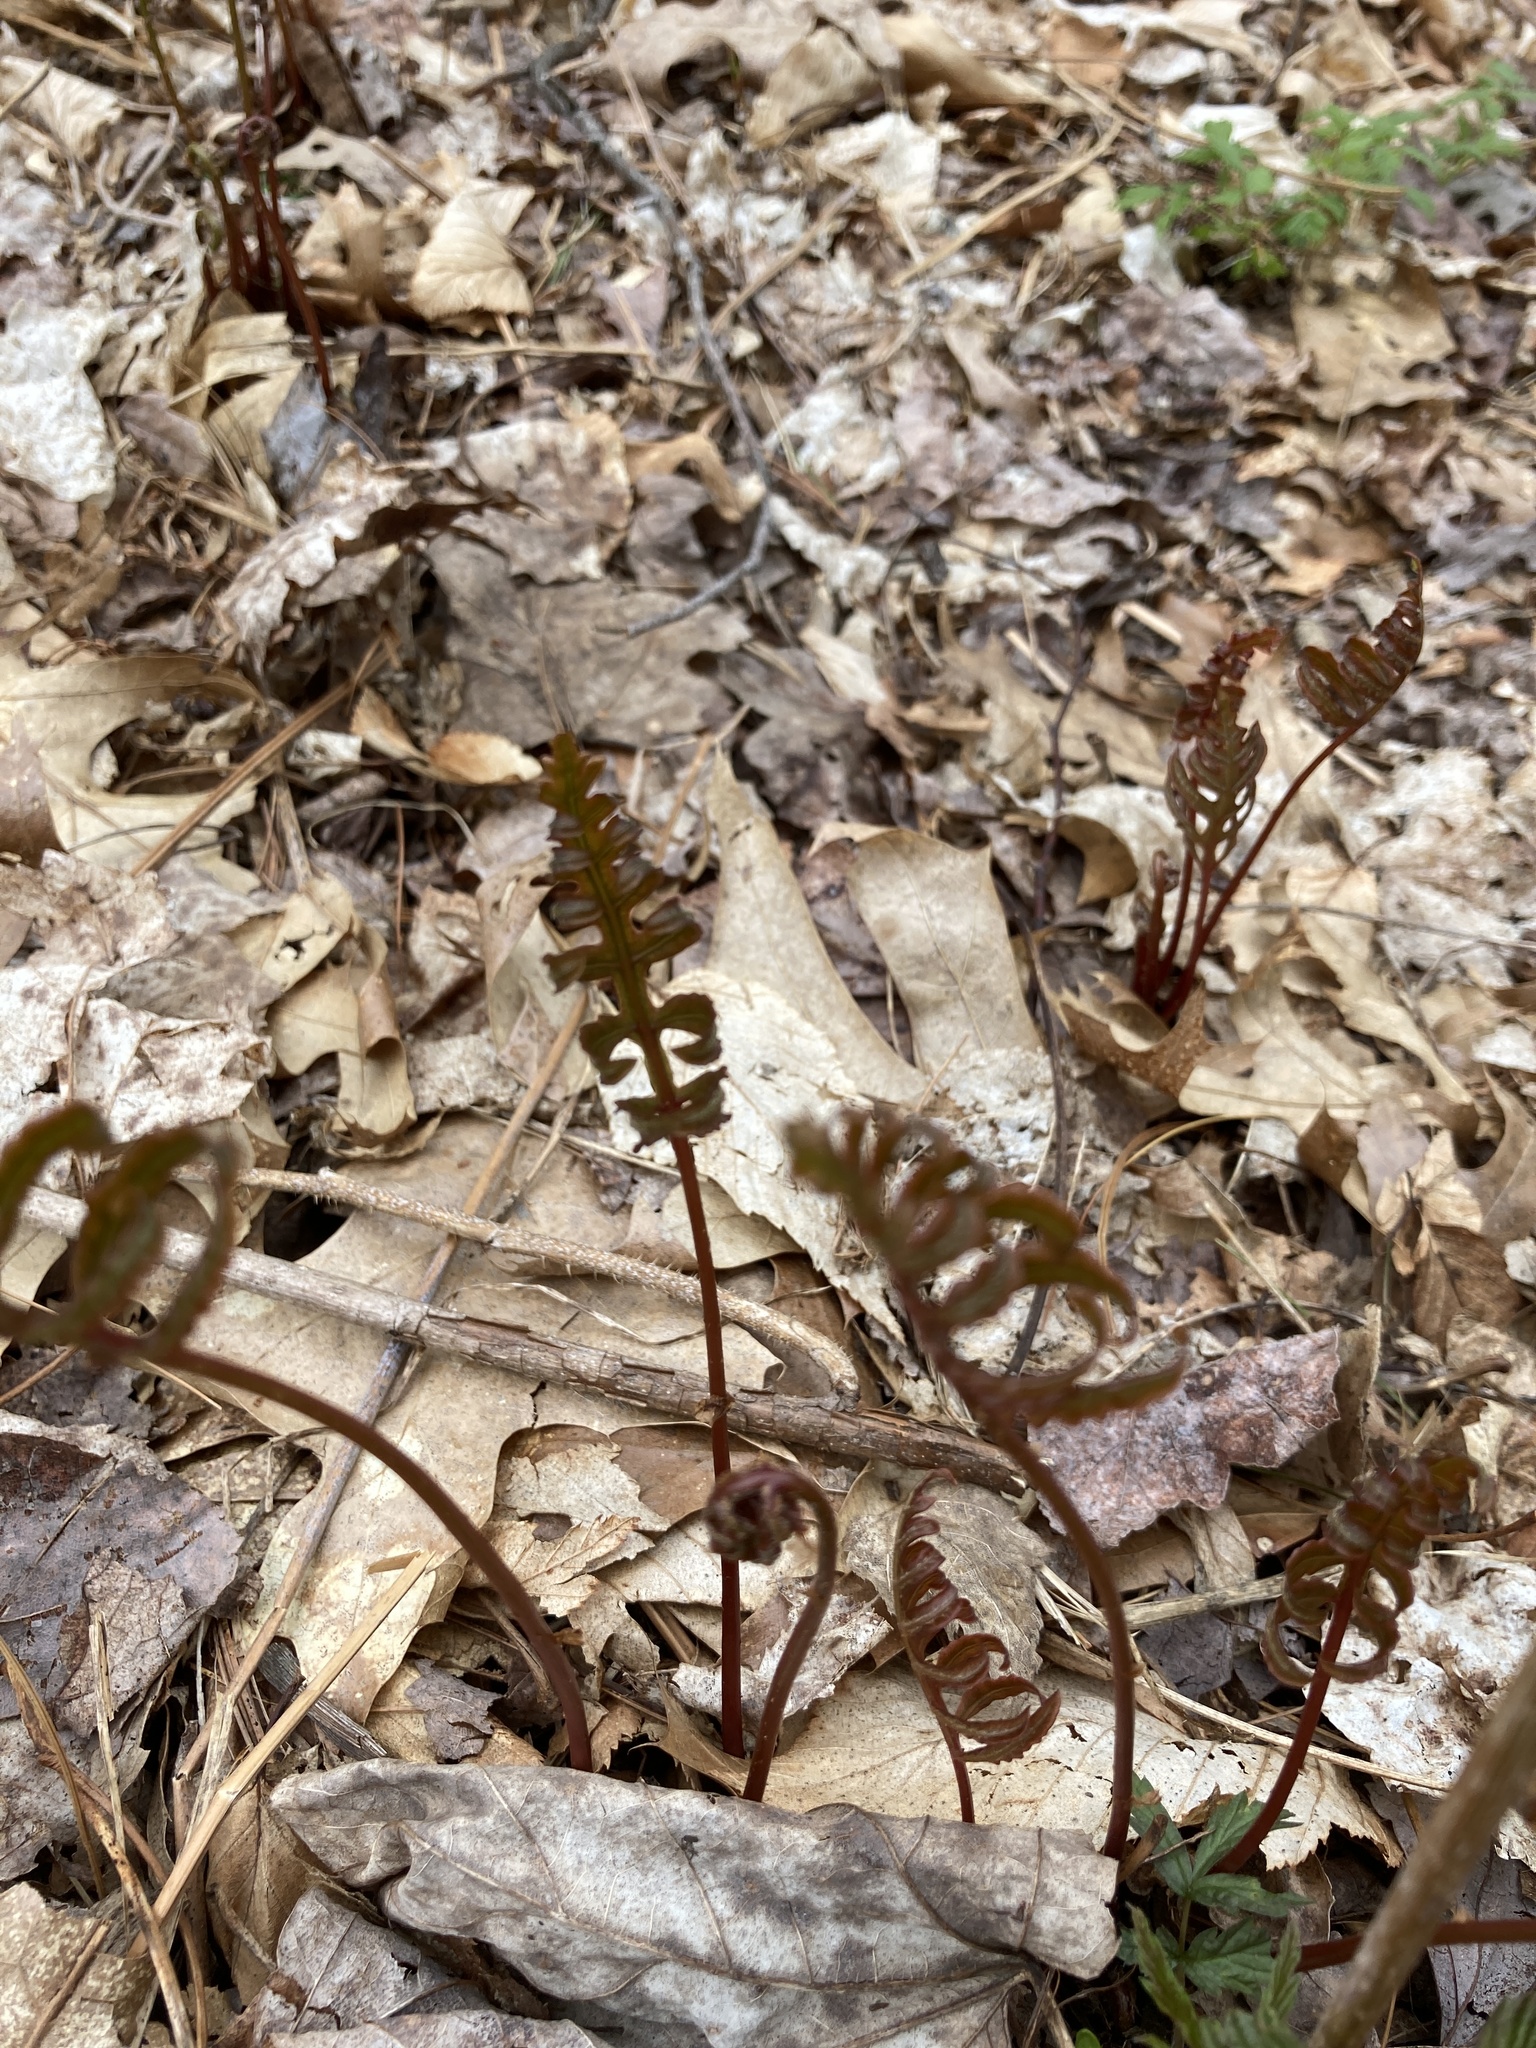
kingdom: Plantae
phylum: Tracheophyta
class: Polypodiopsida
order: Polypodiales
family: Onocleaceae
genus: Onoclea
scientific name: Onoclea sensibilis
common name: Sensitive fern
